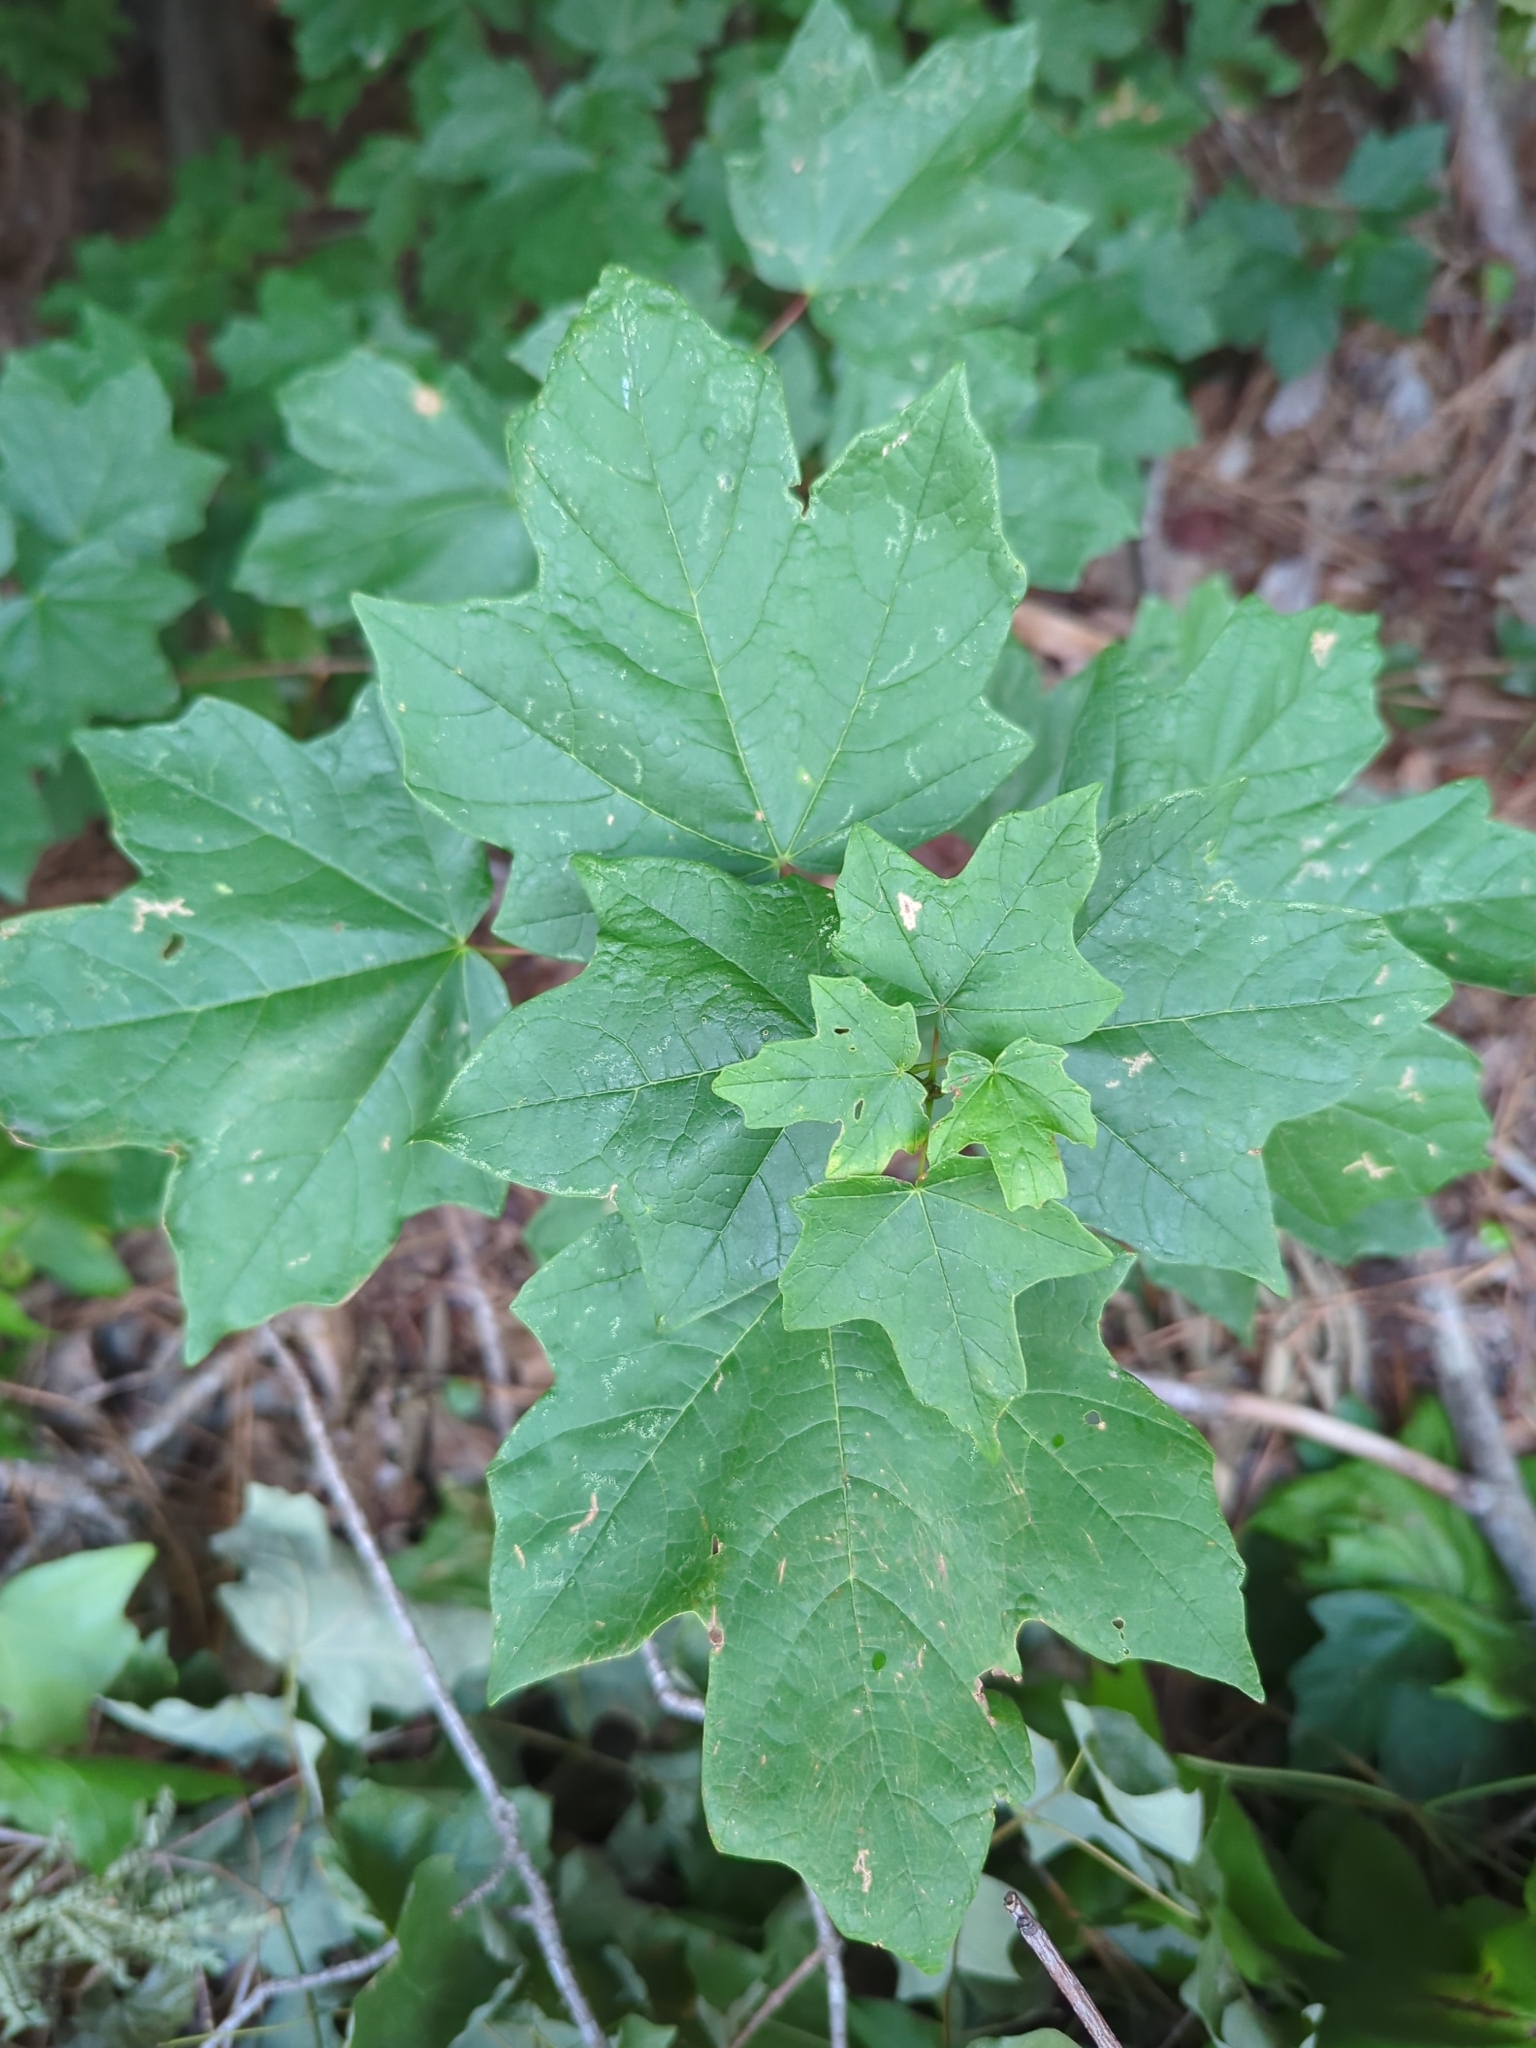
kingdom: Plantae
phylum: Tracheophyta
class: Magnoliopsida
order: Sapindales
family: Sapindaceae
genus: Acer
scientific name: Acer floridanum
